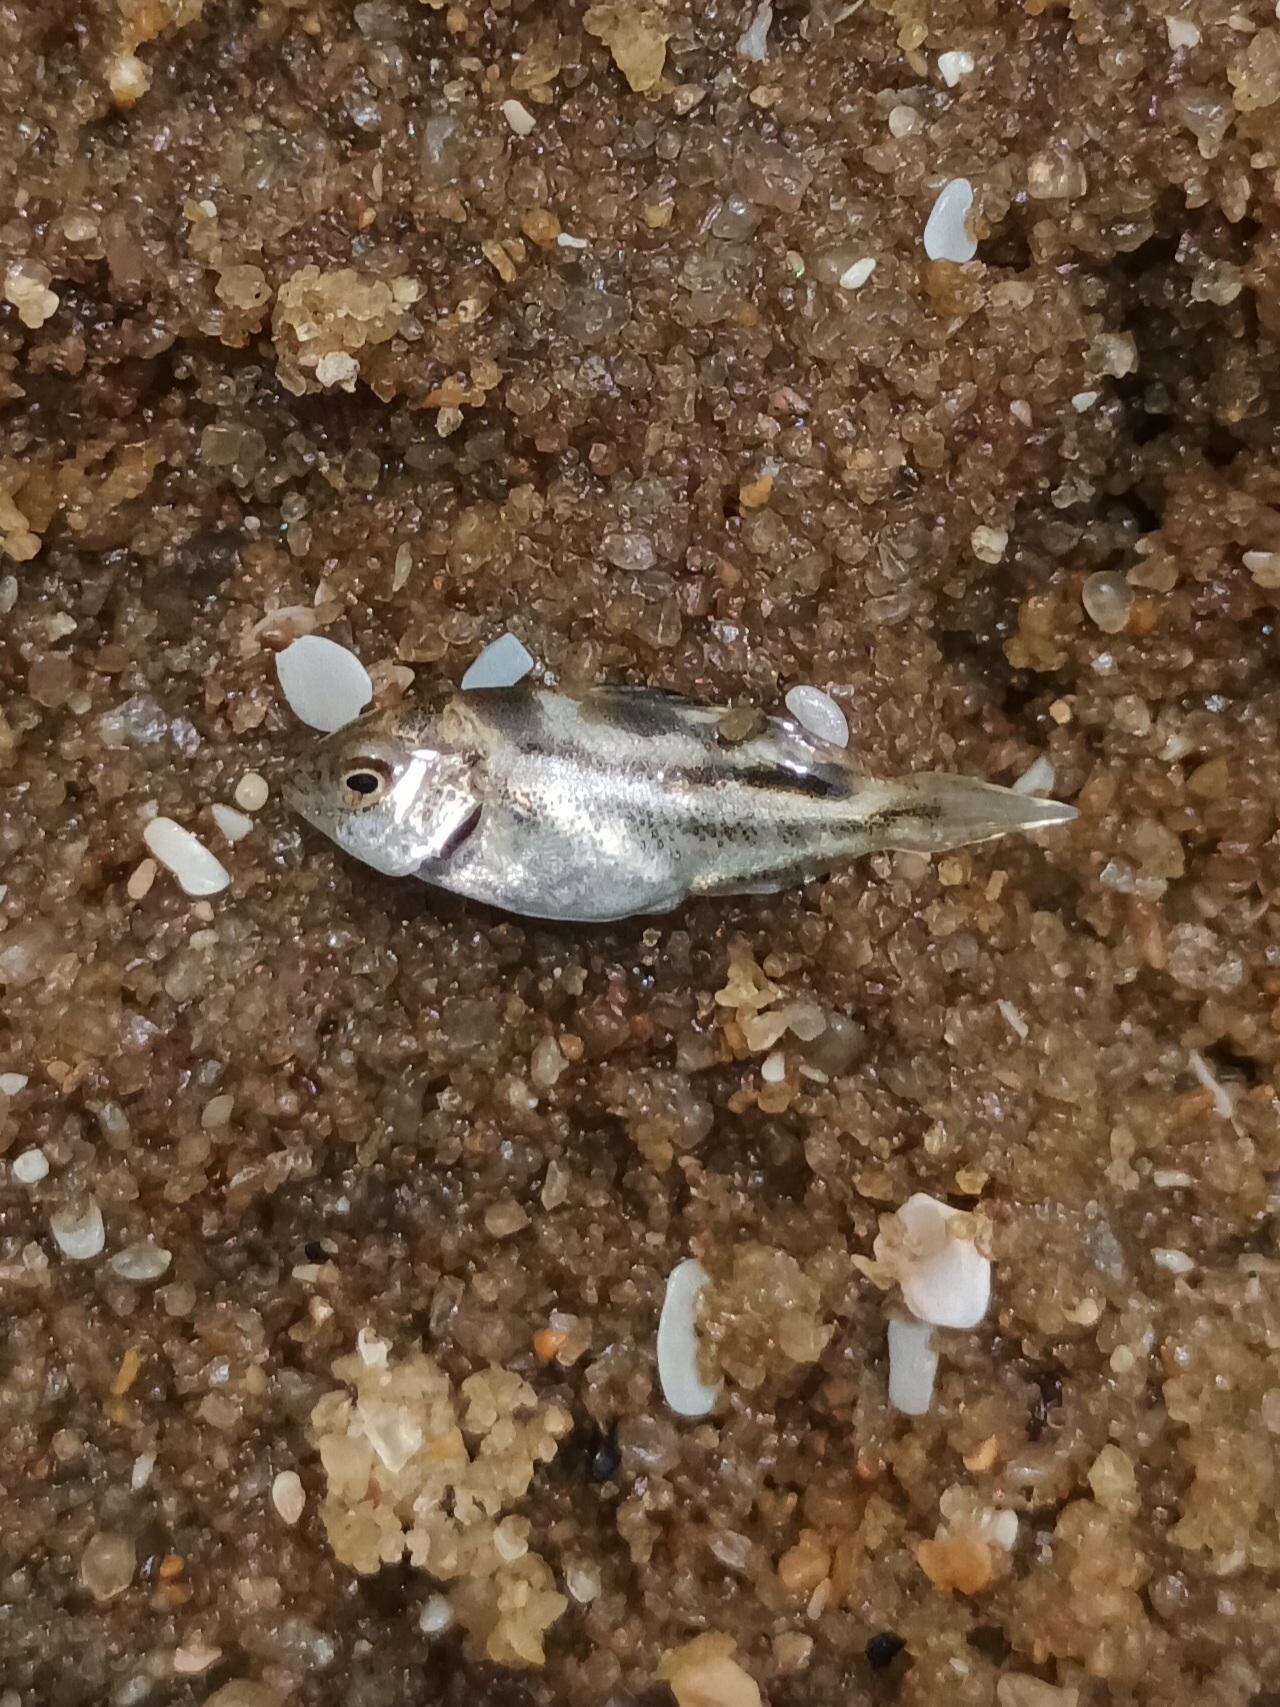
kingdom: Animalia
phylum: Chordata
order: Perciformes
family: Terapontidae
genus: Terapon
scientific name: Terapon jarbua
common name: Jarbua terapon
